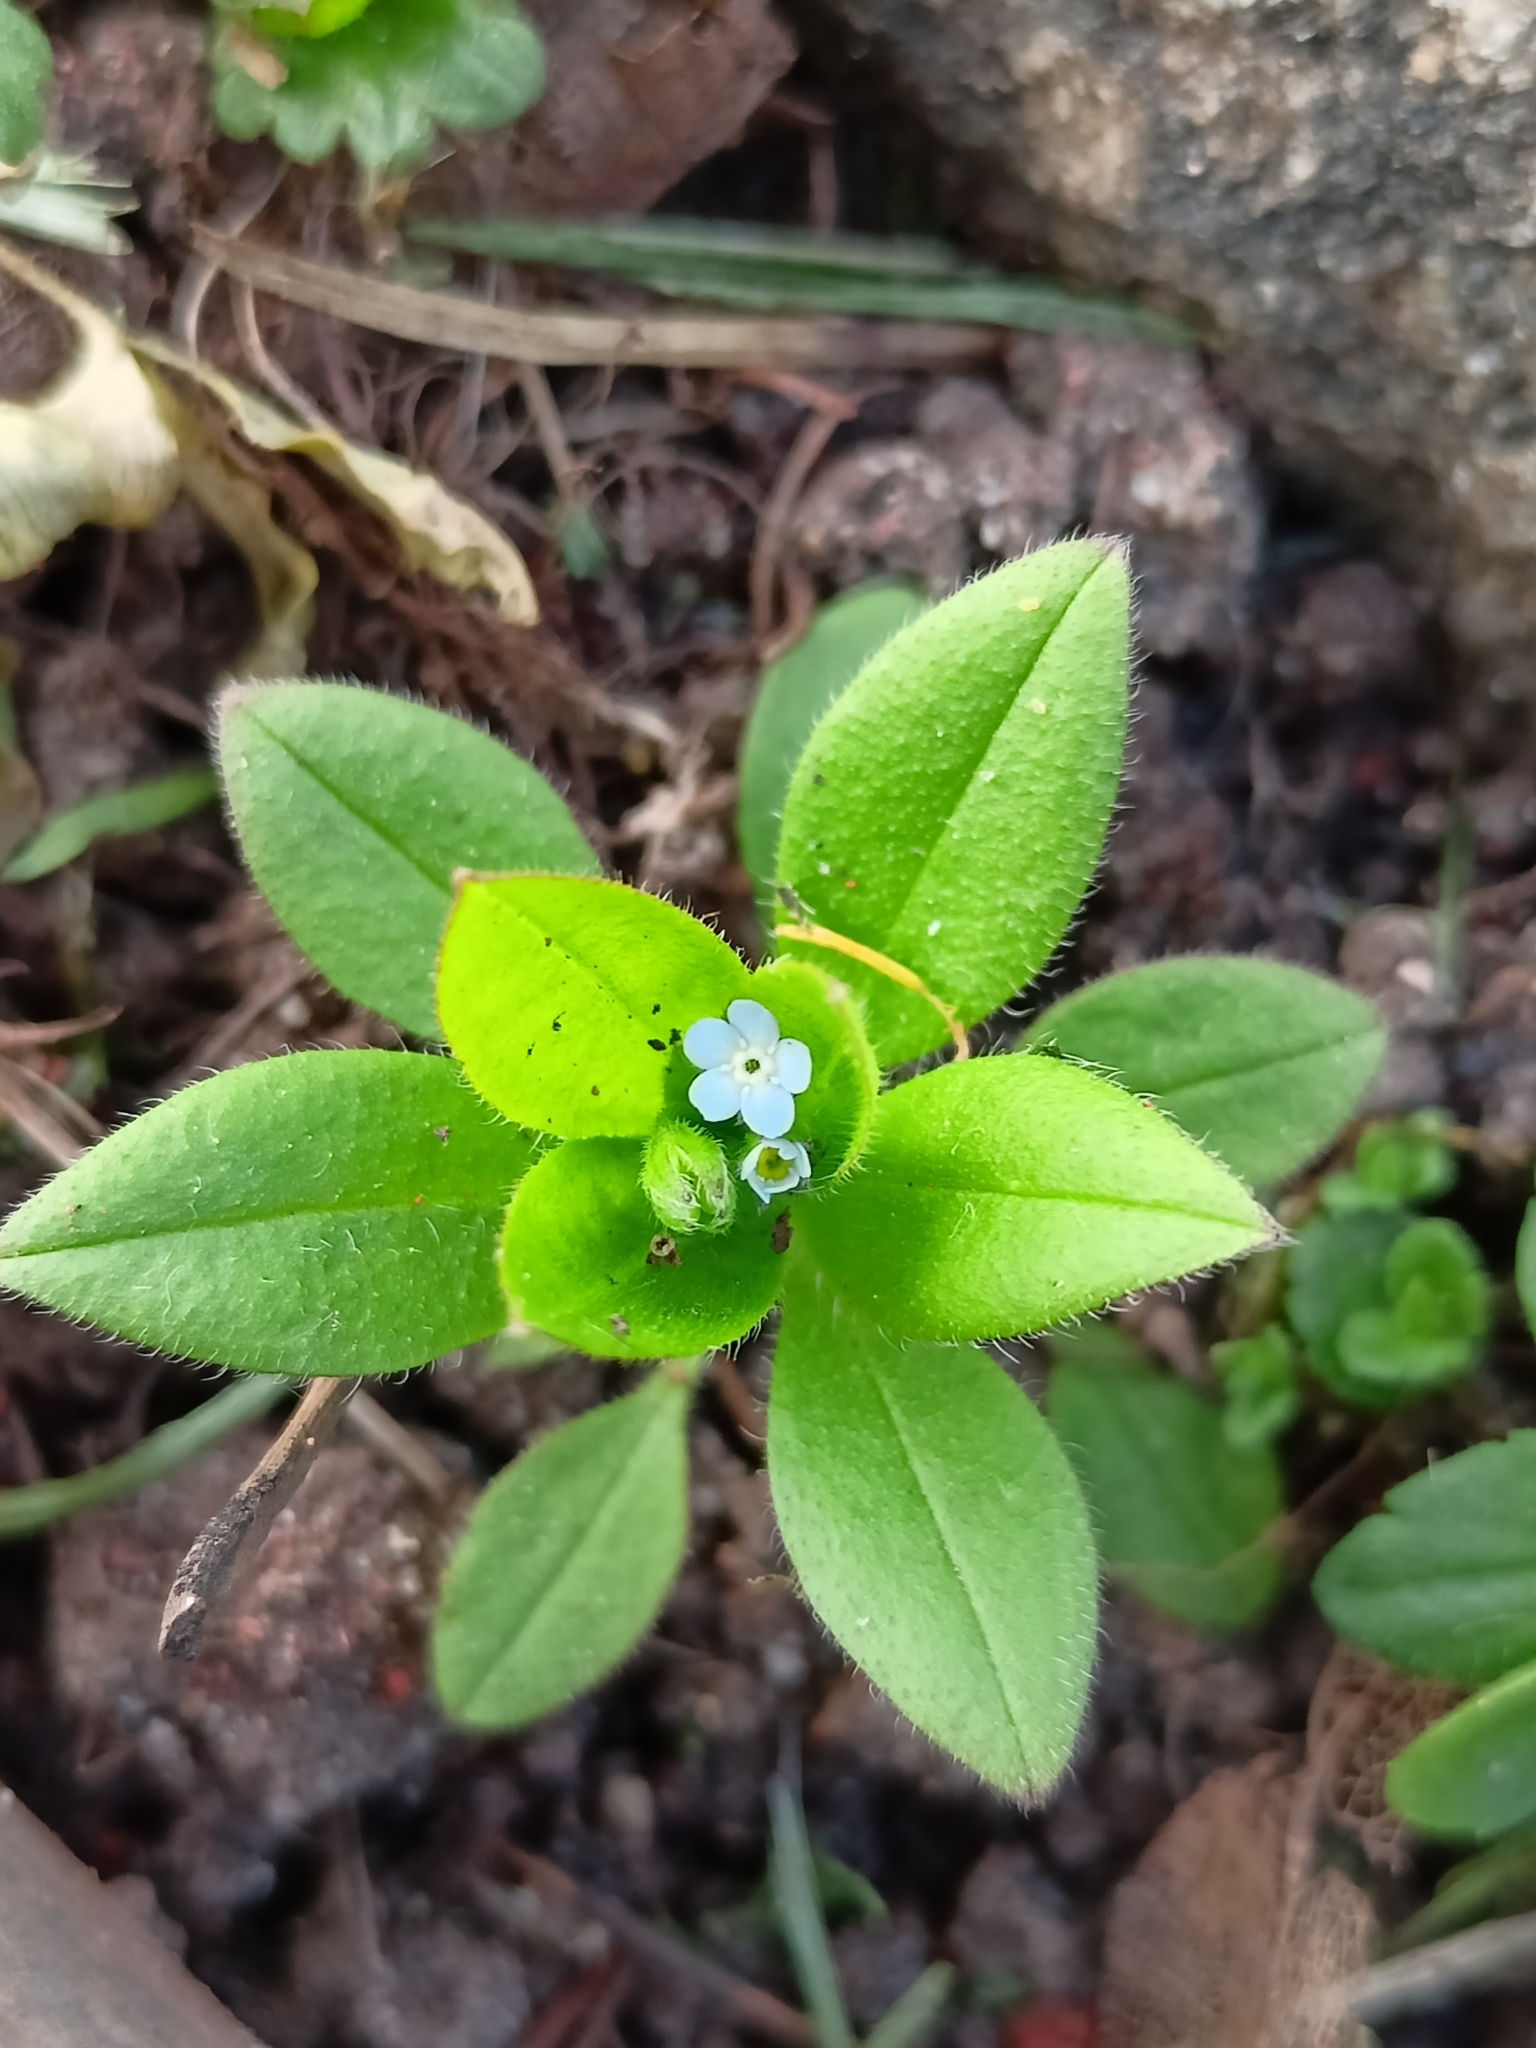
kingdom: Plantae
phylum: Tracheophyta
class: Magnoliopsida
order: Boraginales
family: Boraginaceae
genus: Myosotis
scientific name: Myosotis sparsiflora
